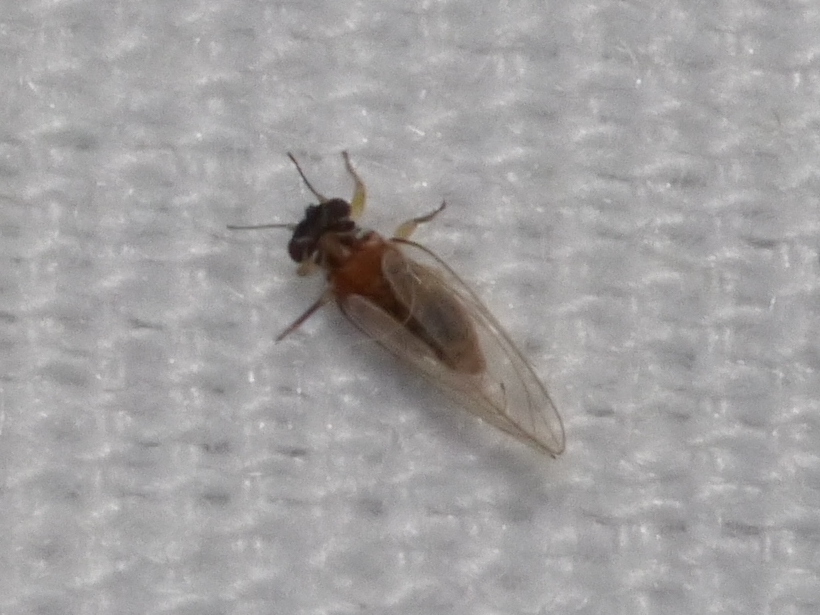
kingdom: Animalia
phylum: Arthropoda
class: Insecta
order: Hemiptera
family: Triozidae
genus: Metatrioza
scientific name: Metatrioza neotriozella
